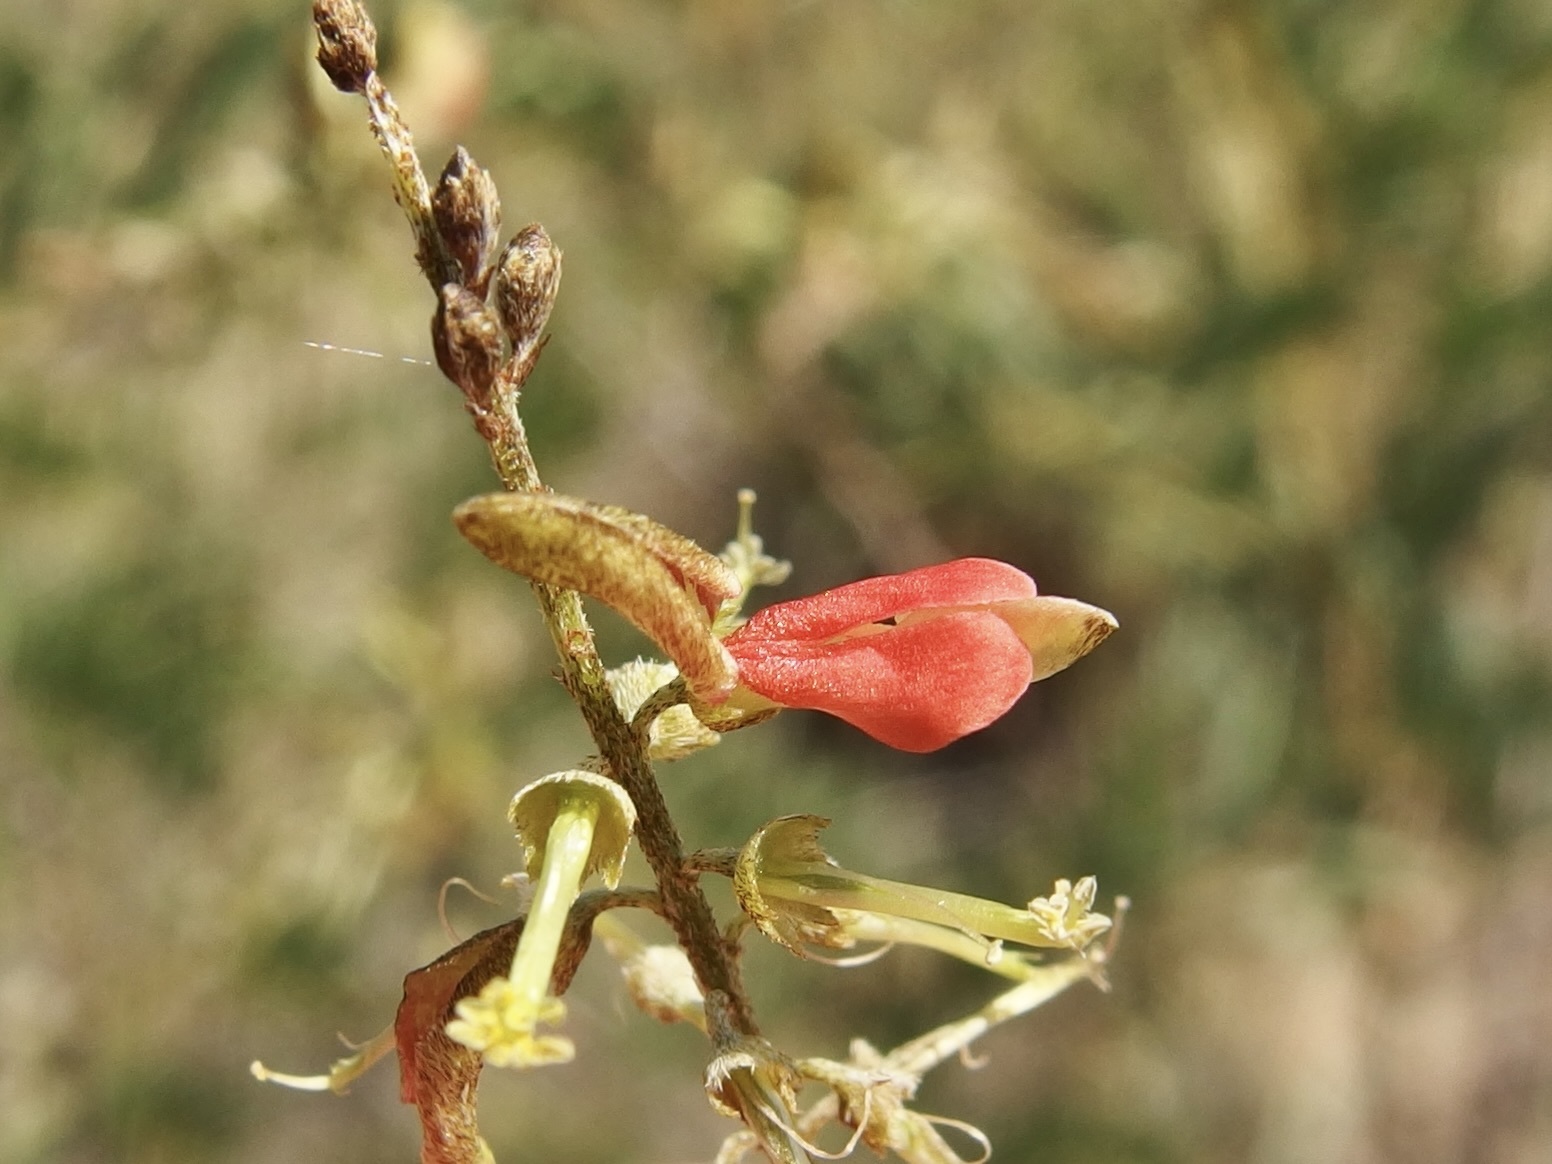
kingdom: Plantae
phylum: Tracheophyta
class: Magnoliopsida
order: Fabales
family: Fabaceae
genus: Indigofera
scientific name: Indigofera sphaerocarpa
